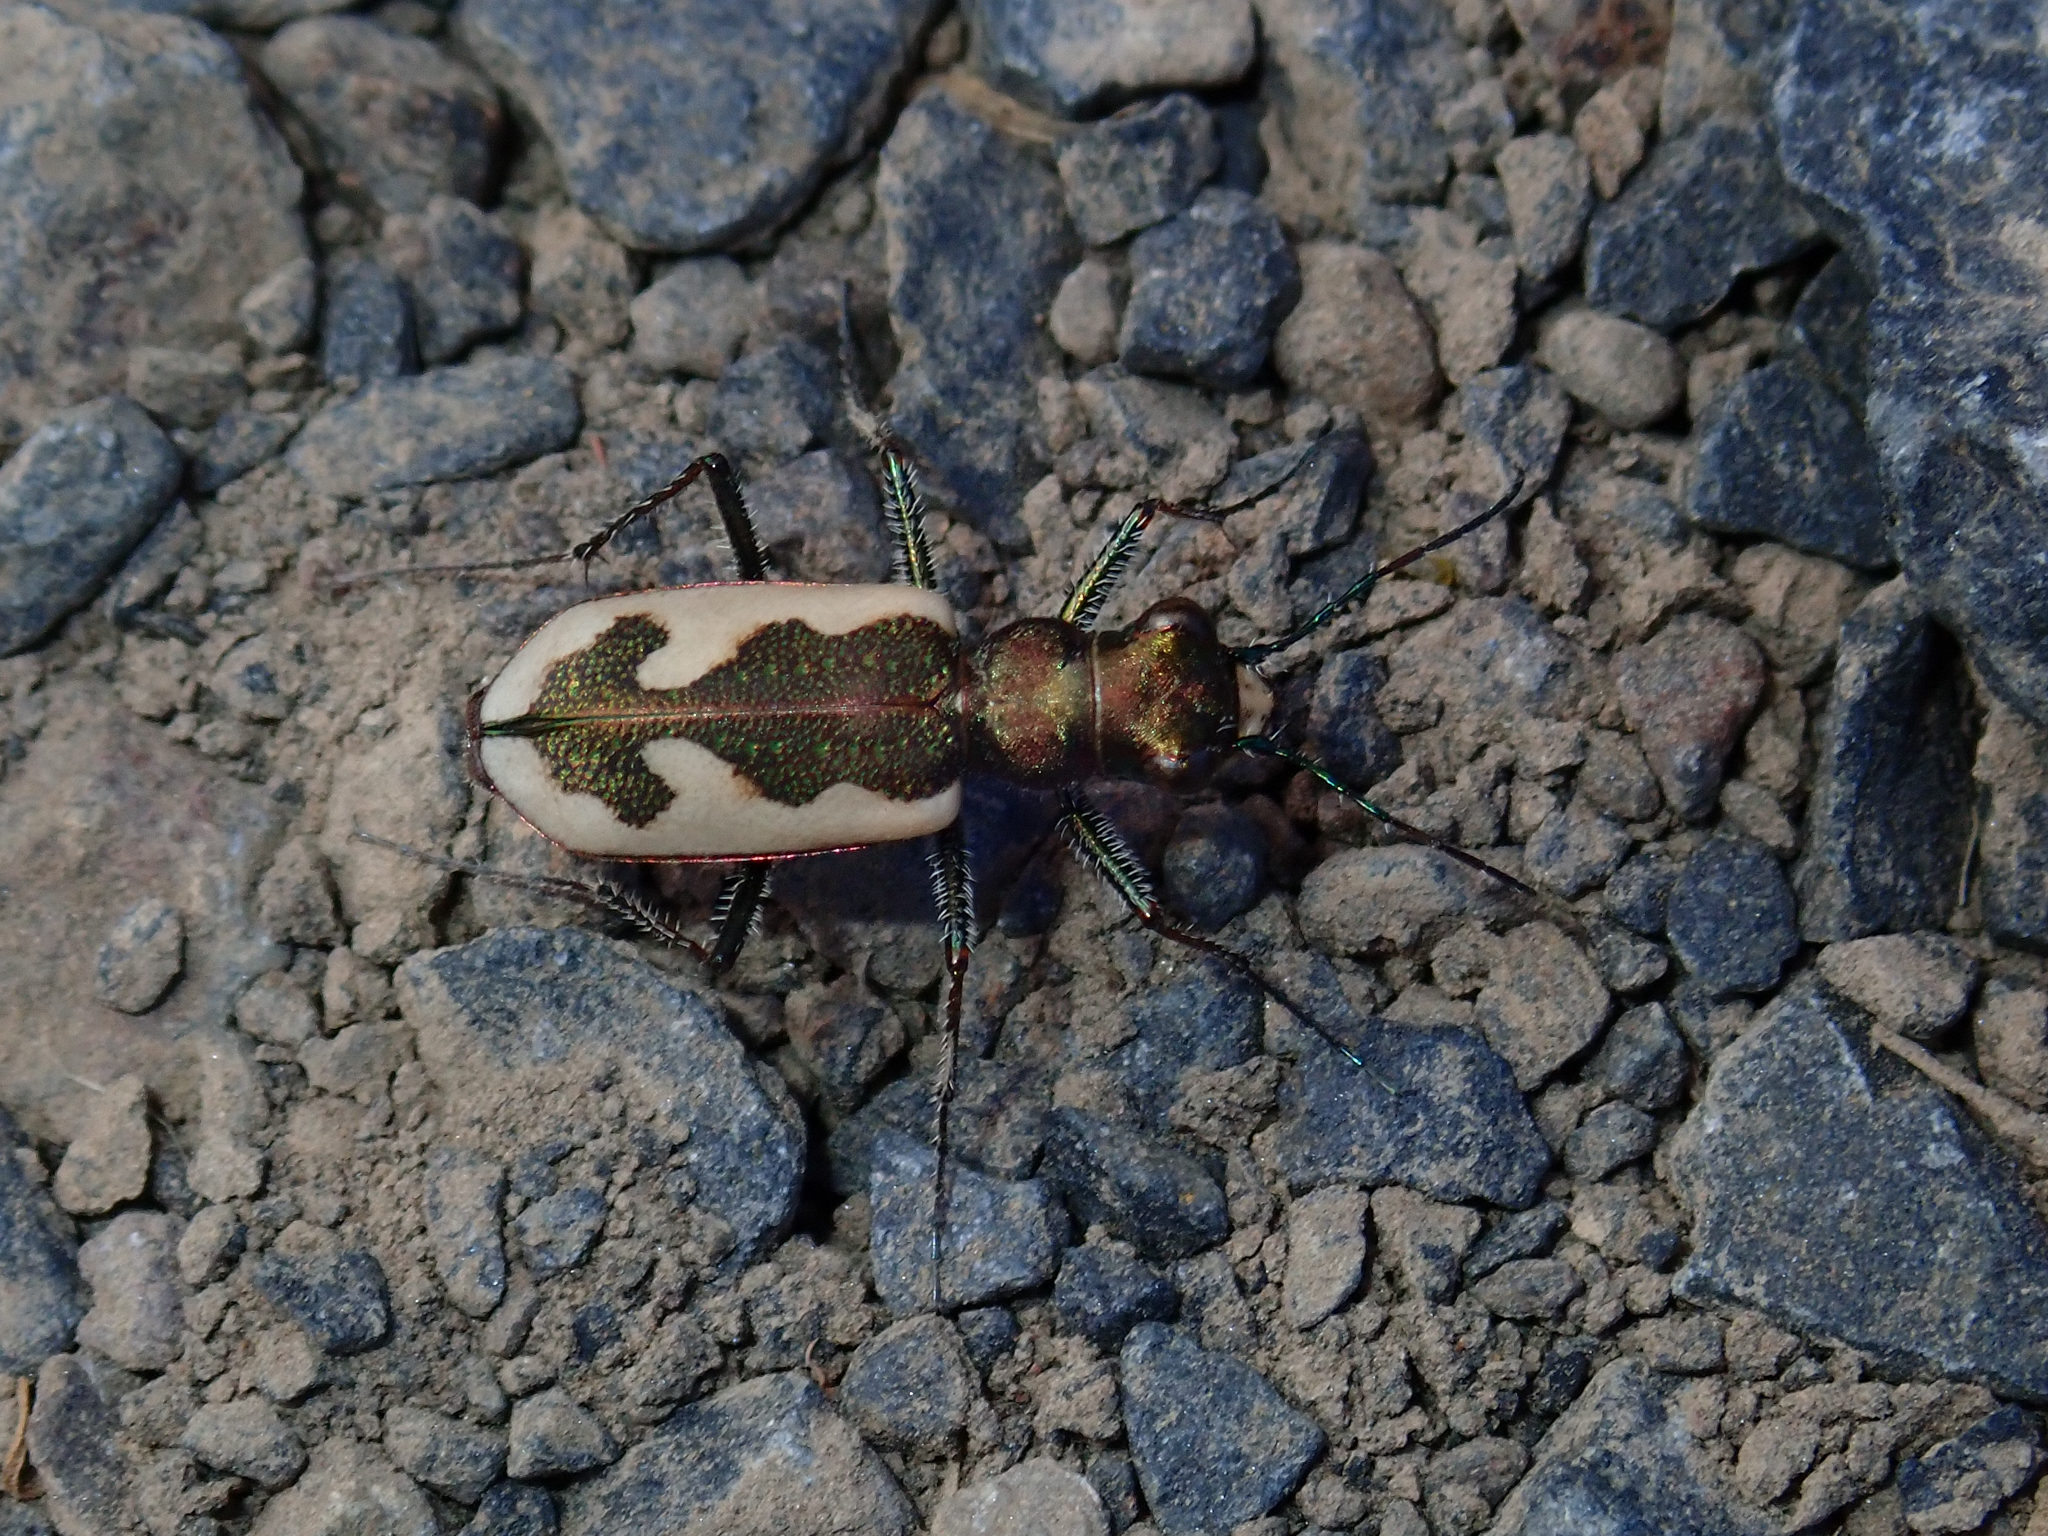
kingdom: Animalia
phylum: Arthropoda
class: Insecta
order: Coleoptera
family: Carabidae
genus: Neocicindela
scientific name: Neocicindela latecincta
